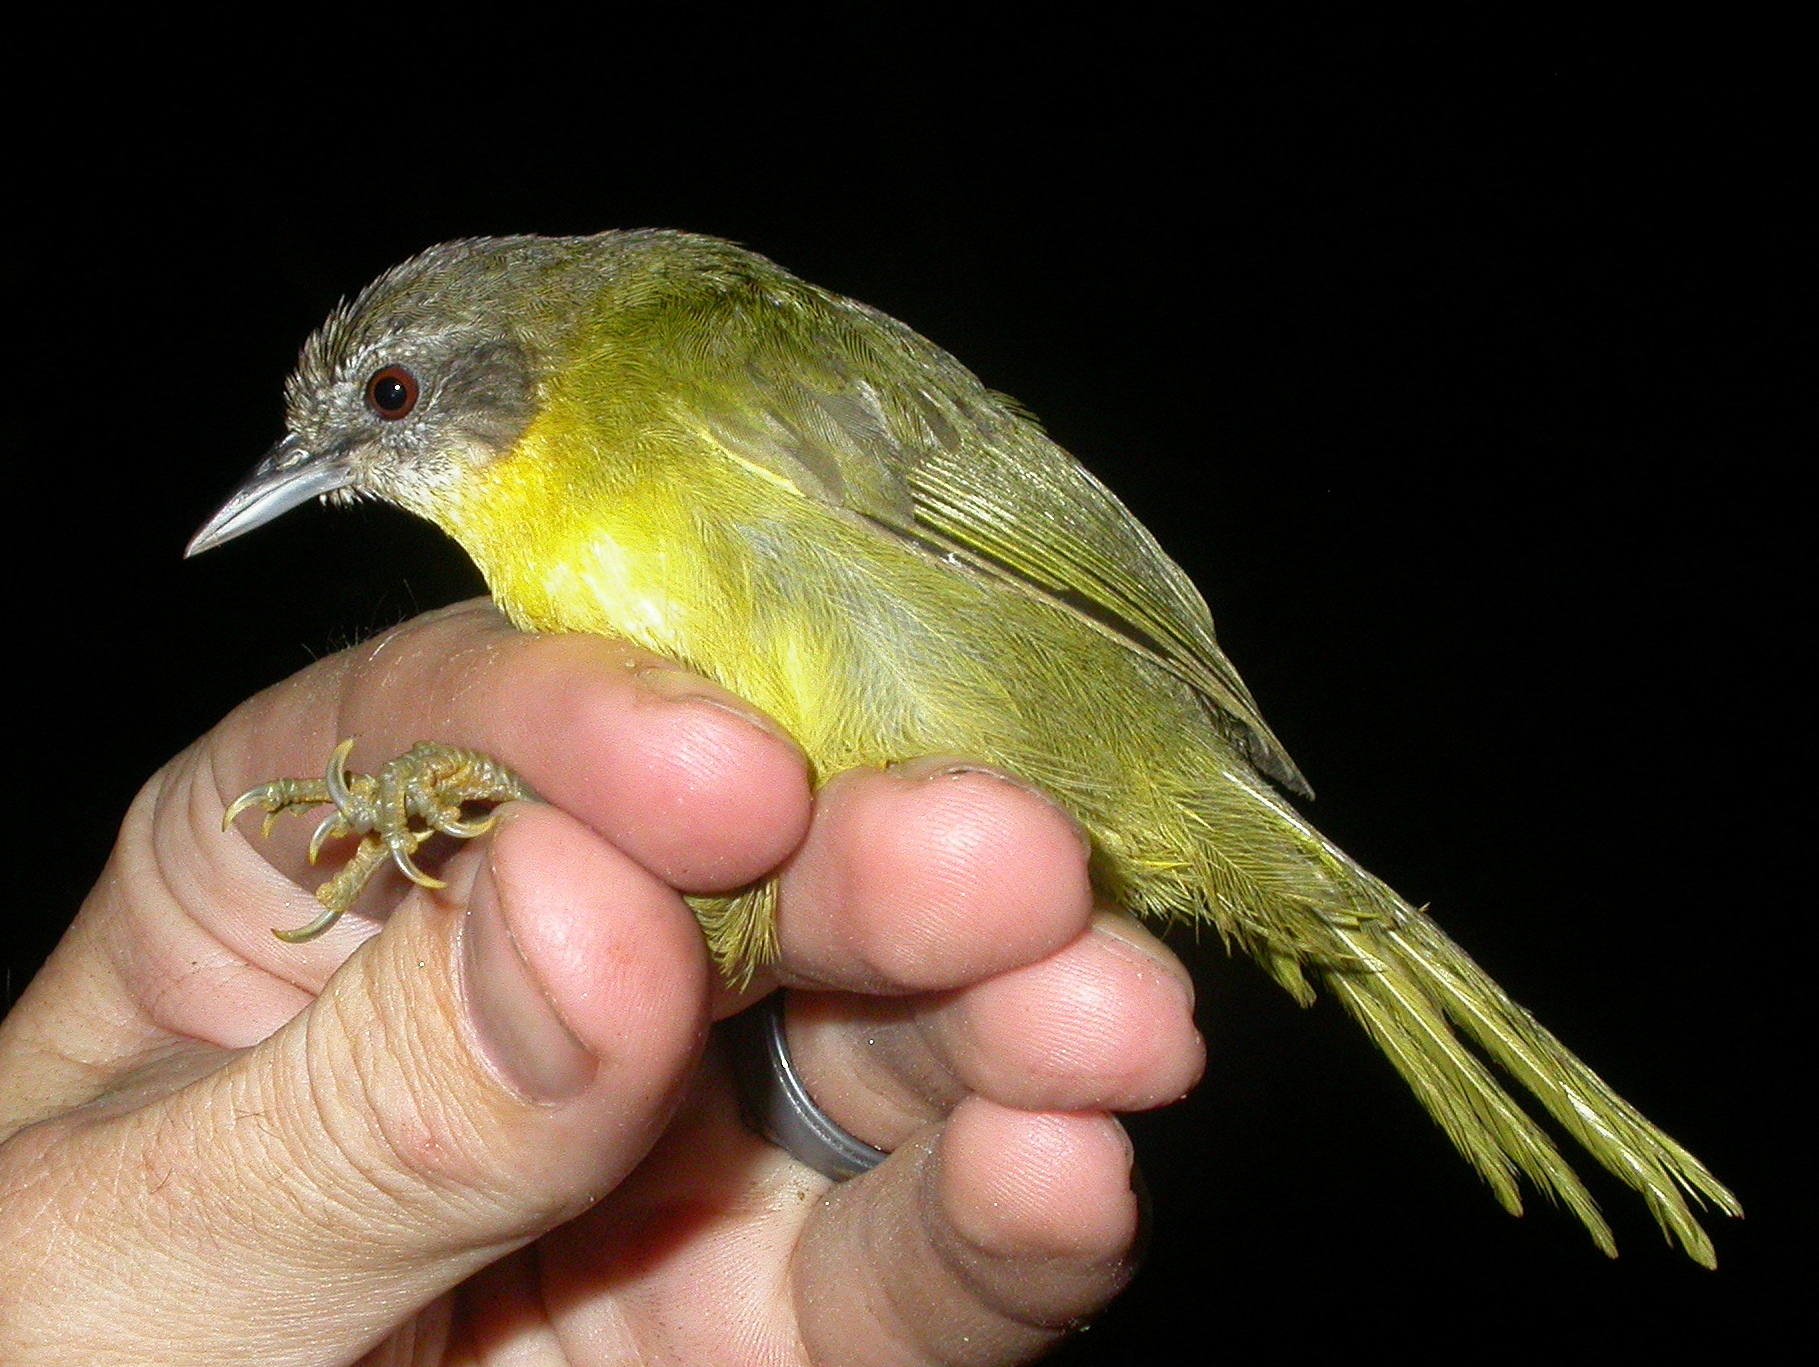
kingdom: Animalia
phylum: Chordata
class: Aves
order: Passeriformes
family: Bernieridae
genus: Hartertula
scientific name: Hartertula flavoviridis
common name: Wedge-tailed jery
